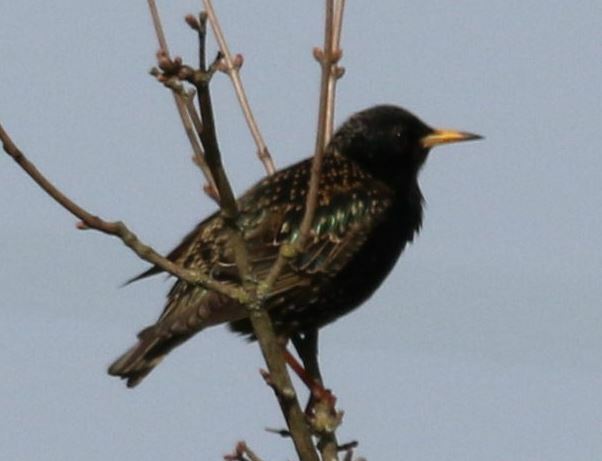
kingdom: Animalia
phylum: Chordata
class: Aves
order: Passeriformes
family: Sturnidae
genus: Sturnus
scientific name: Sturnus vulgaris
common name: Common starling
